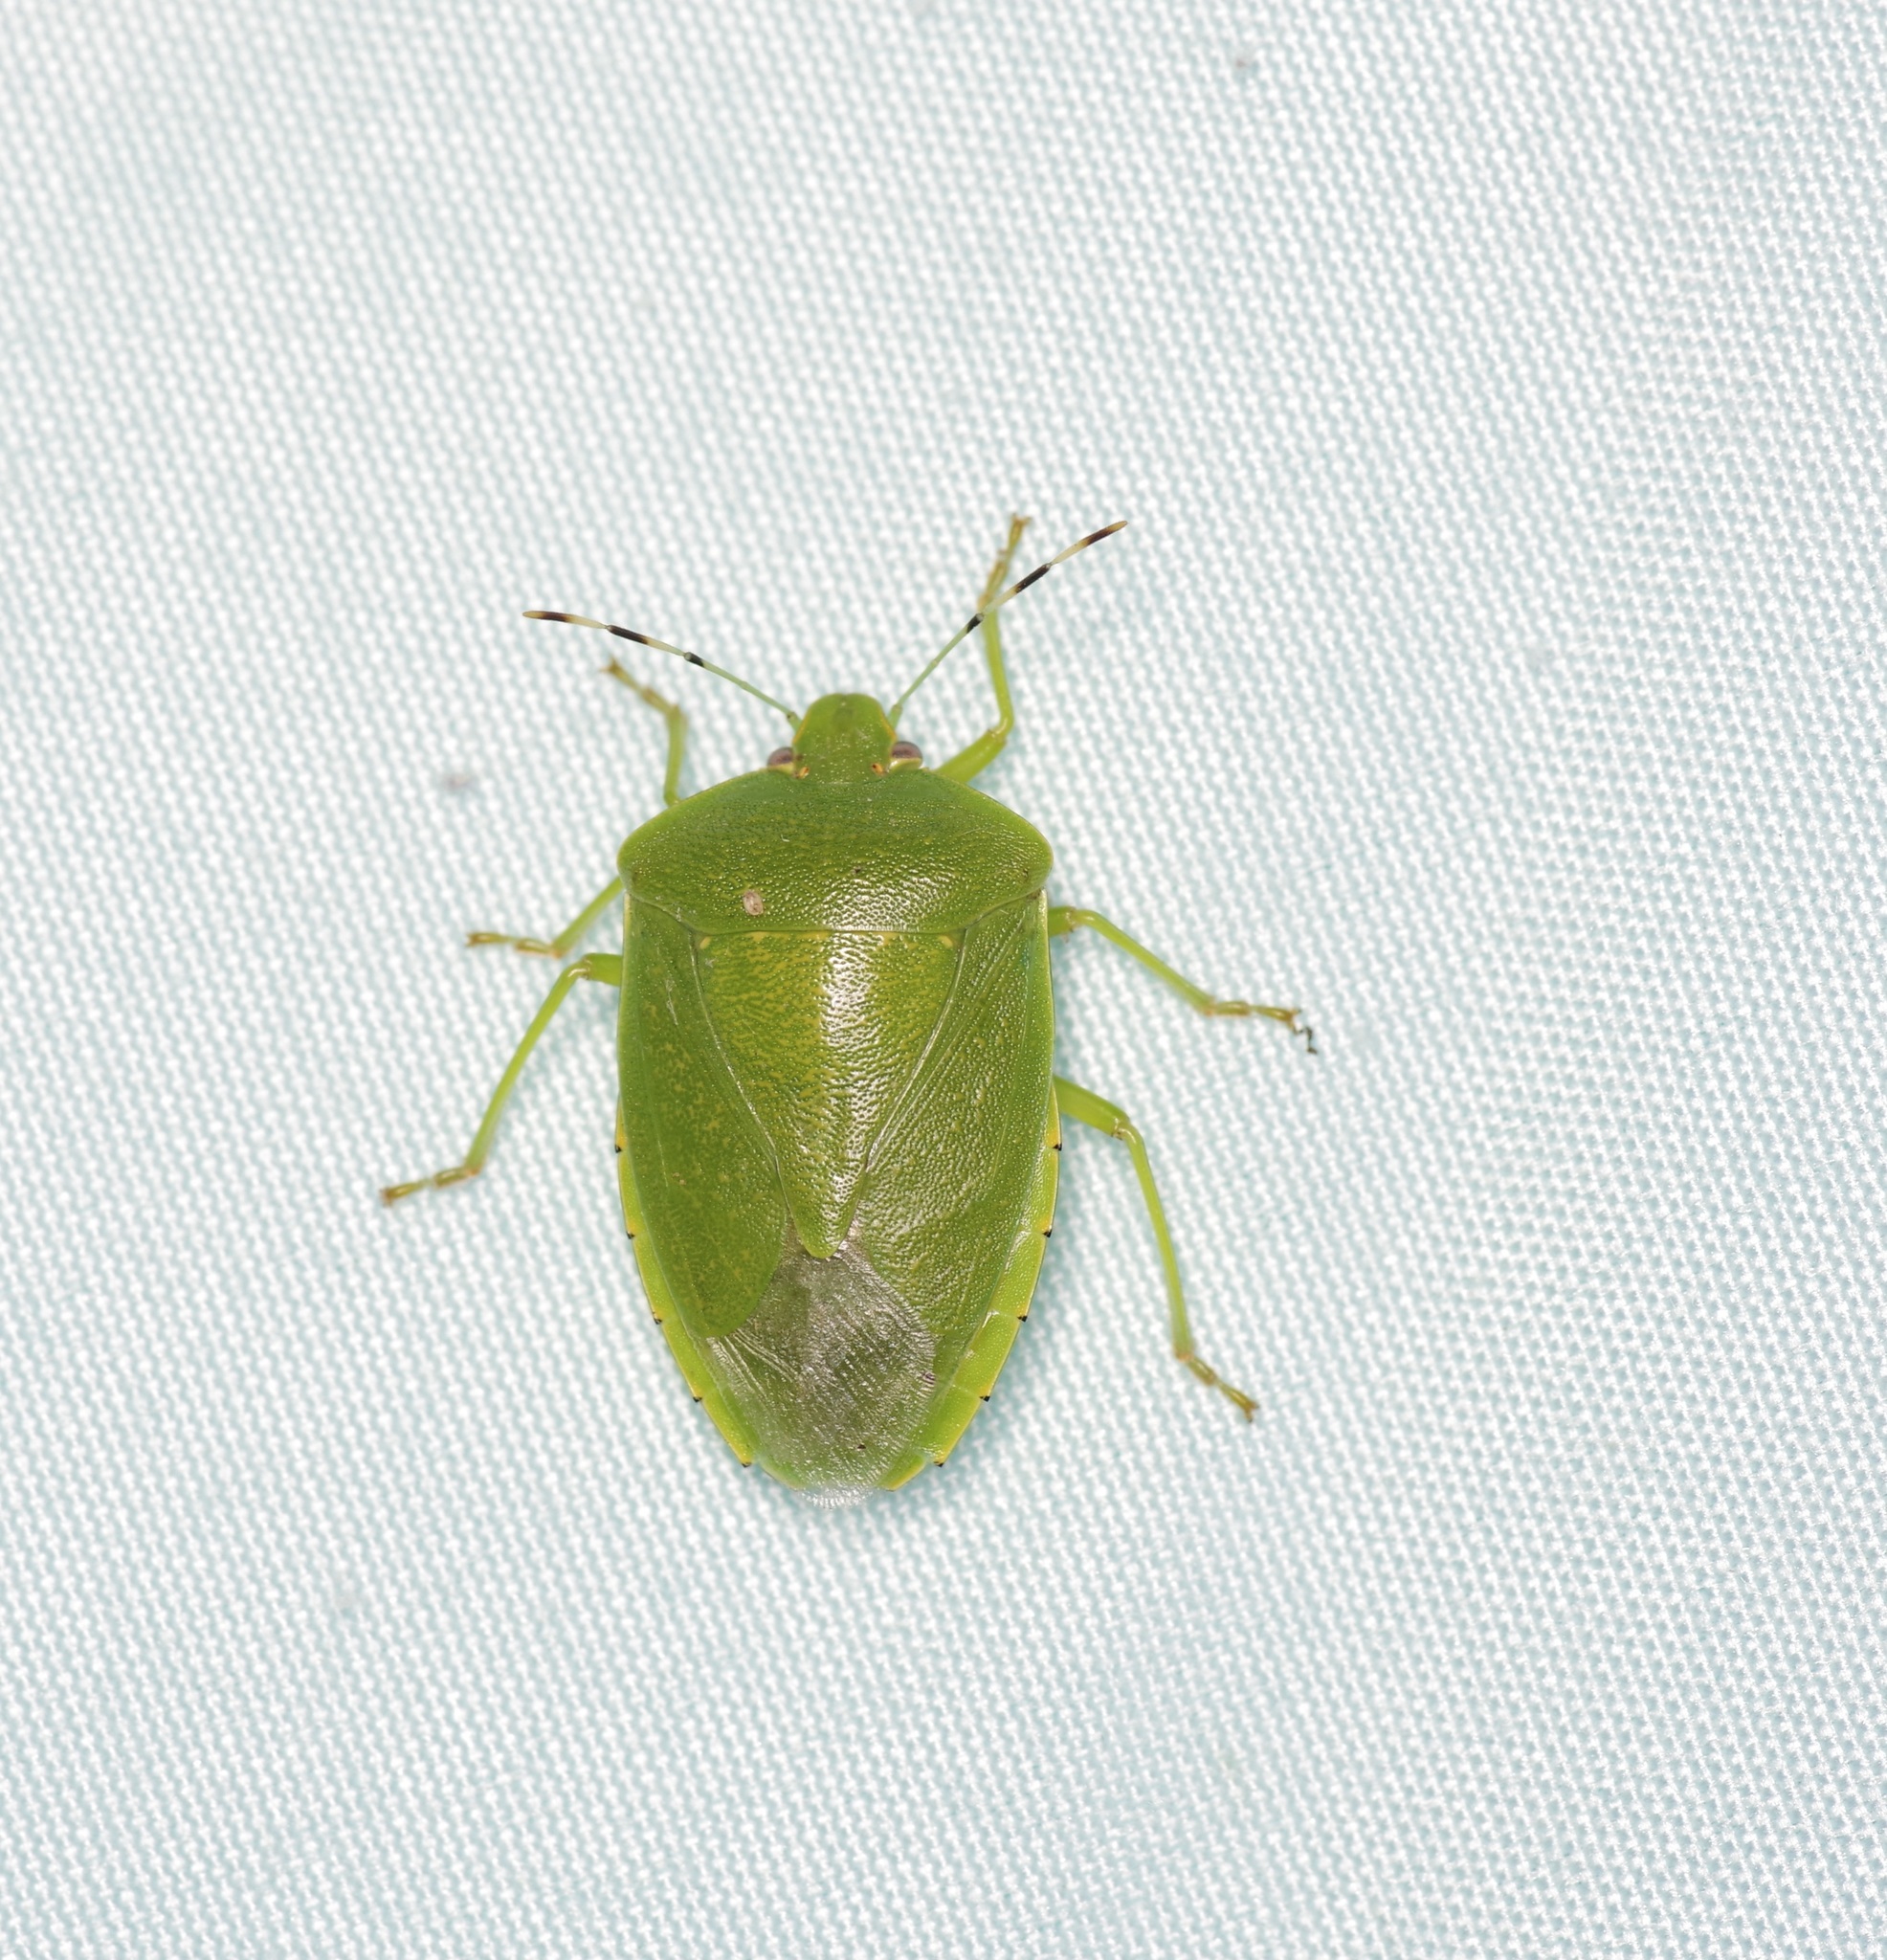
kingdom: Animalia
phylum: Arthropoda
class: Insecta
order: Hemiptera
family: Pentatomidae
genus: Chinavia
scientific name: Chinavia hilaris
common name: Green stink bug
